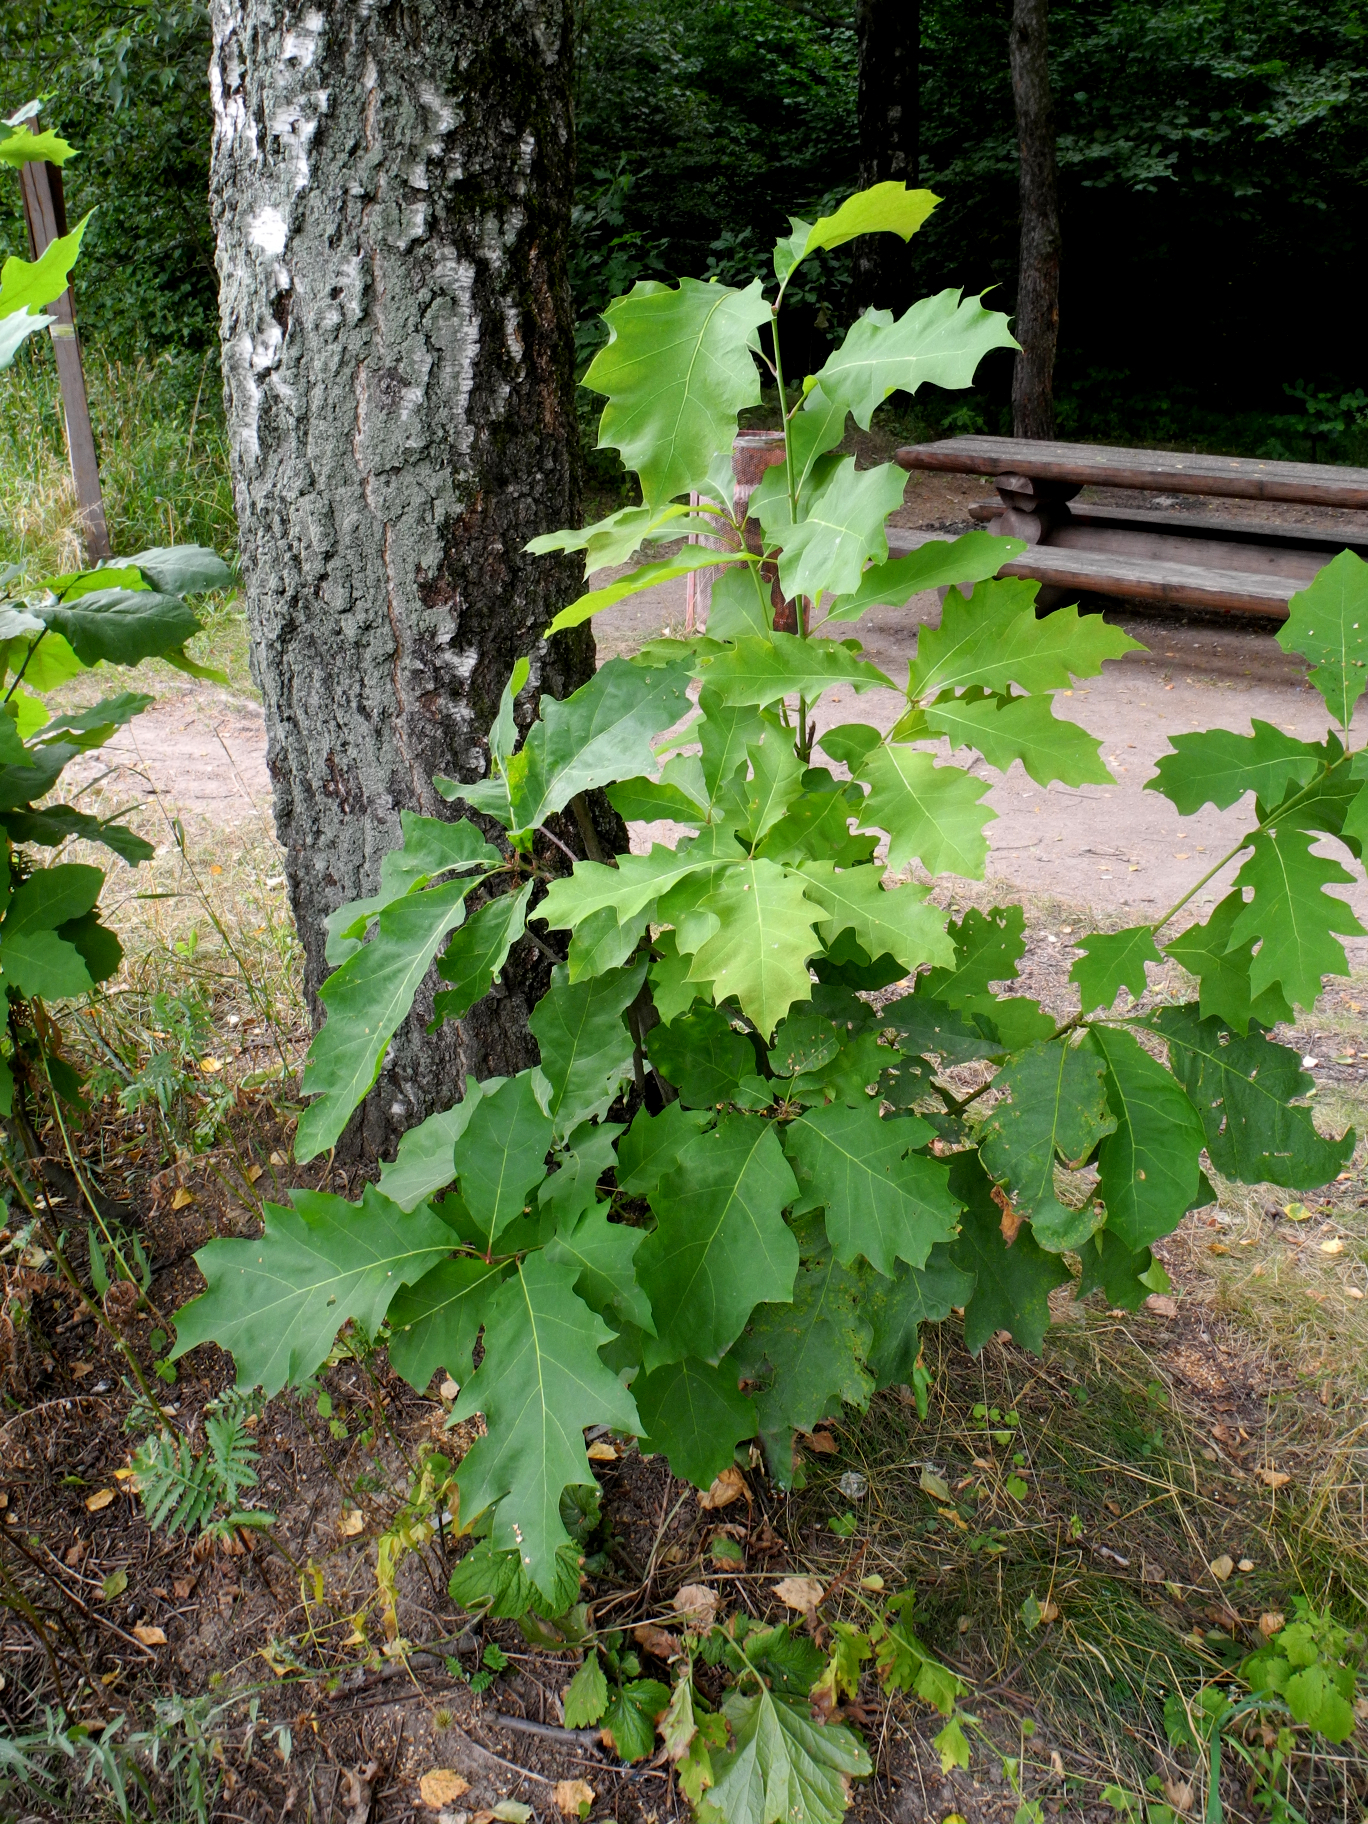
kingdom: Plantae
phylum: Tracheophyta
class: Magnoliopsida
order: Fagales
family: Fagaceae
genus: Quercus
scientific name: Quercus rubra
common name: Red oak
